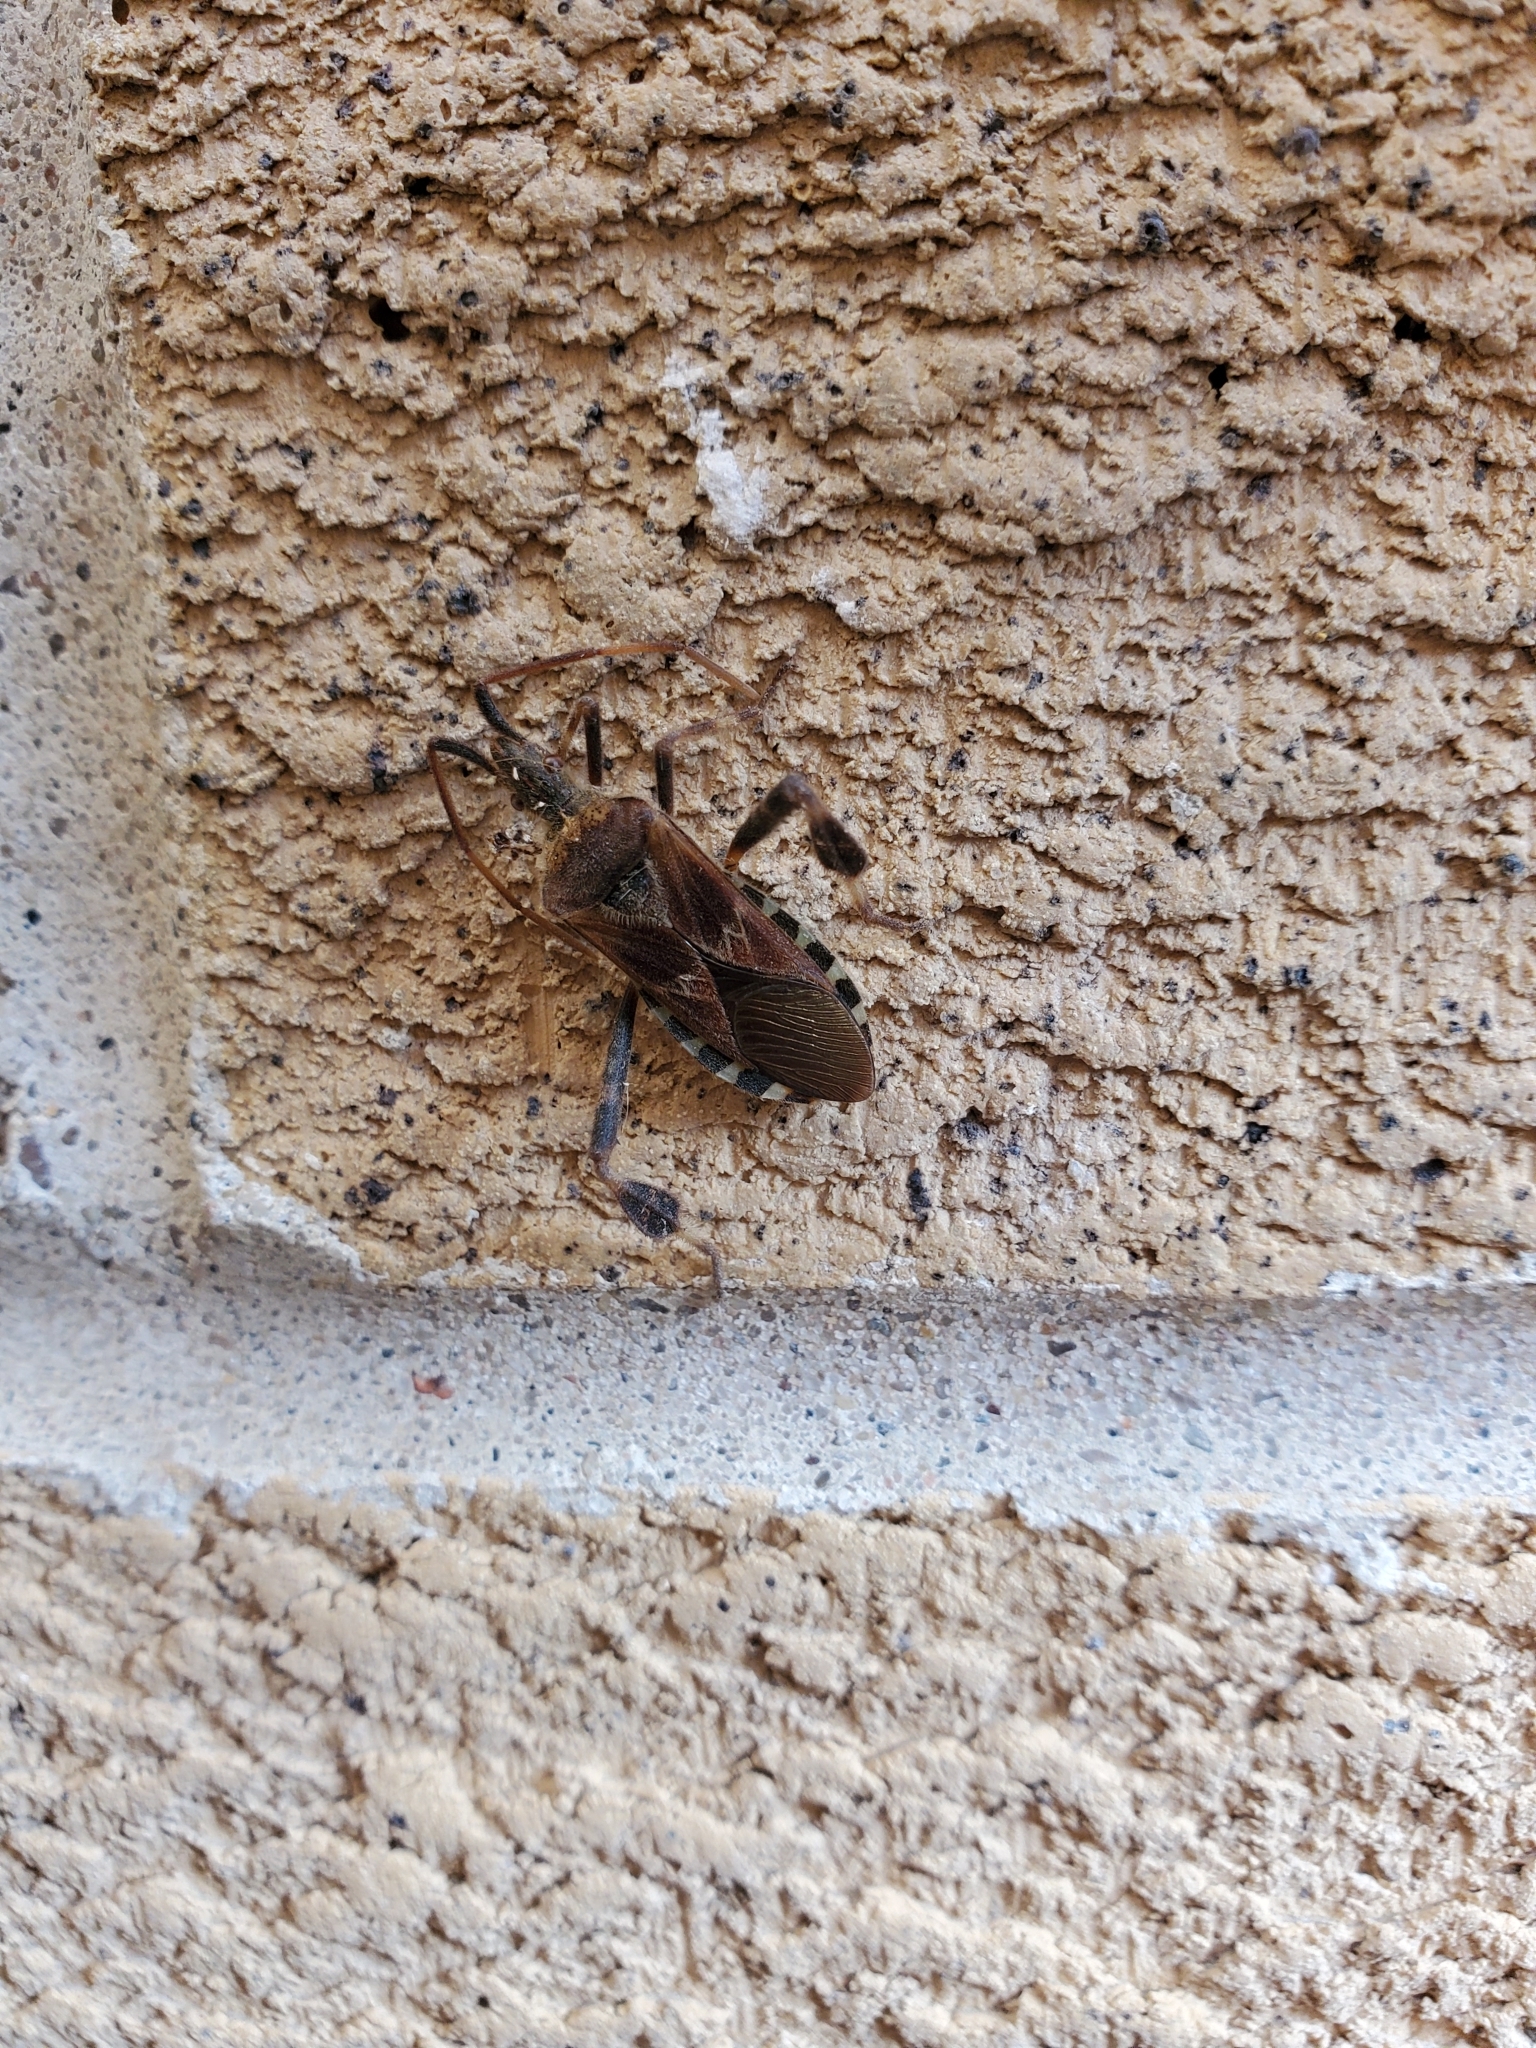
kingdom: Animalia
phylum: Arthropoda
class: Insecta
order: Hemiptera
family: Coreidae
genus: Leptoglossus
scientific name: Leptoglossus occidentalis
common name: Western conifer-seed bug
